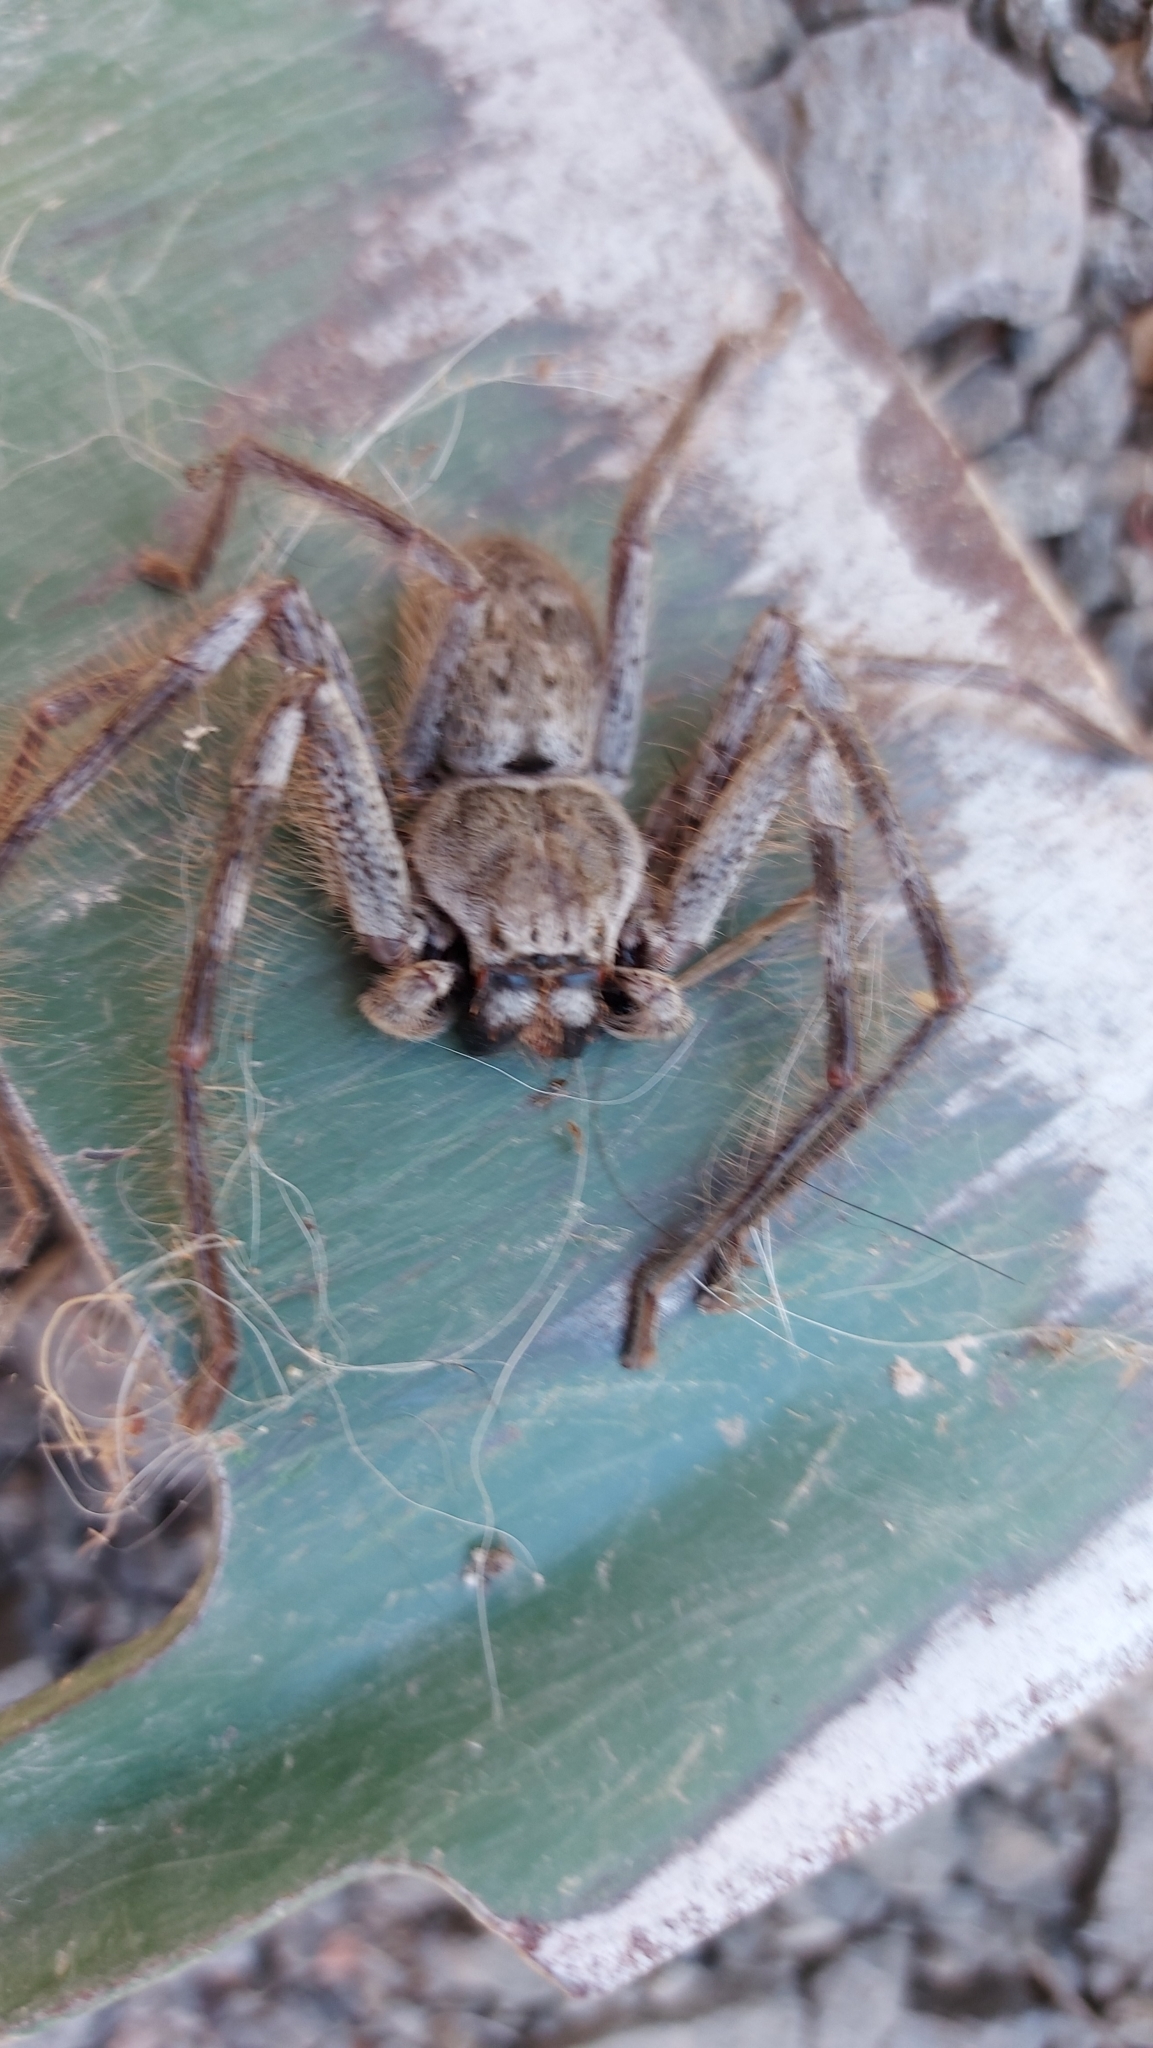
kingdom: Animalia
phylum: Arthropoda
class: Arachnida
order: Araneae
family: Sparassidae
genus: Isopeda
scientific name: Isopeda montana
